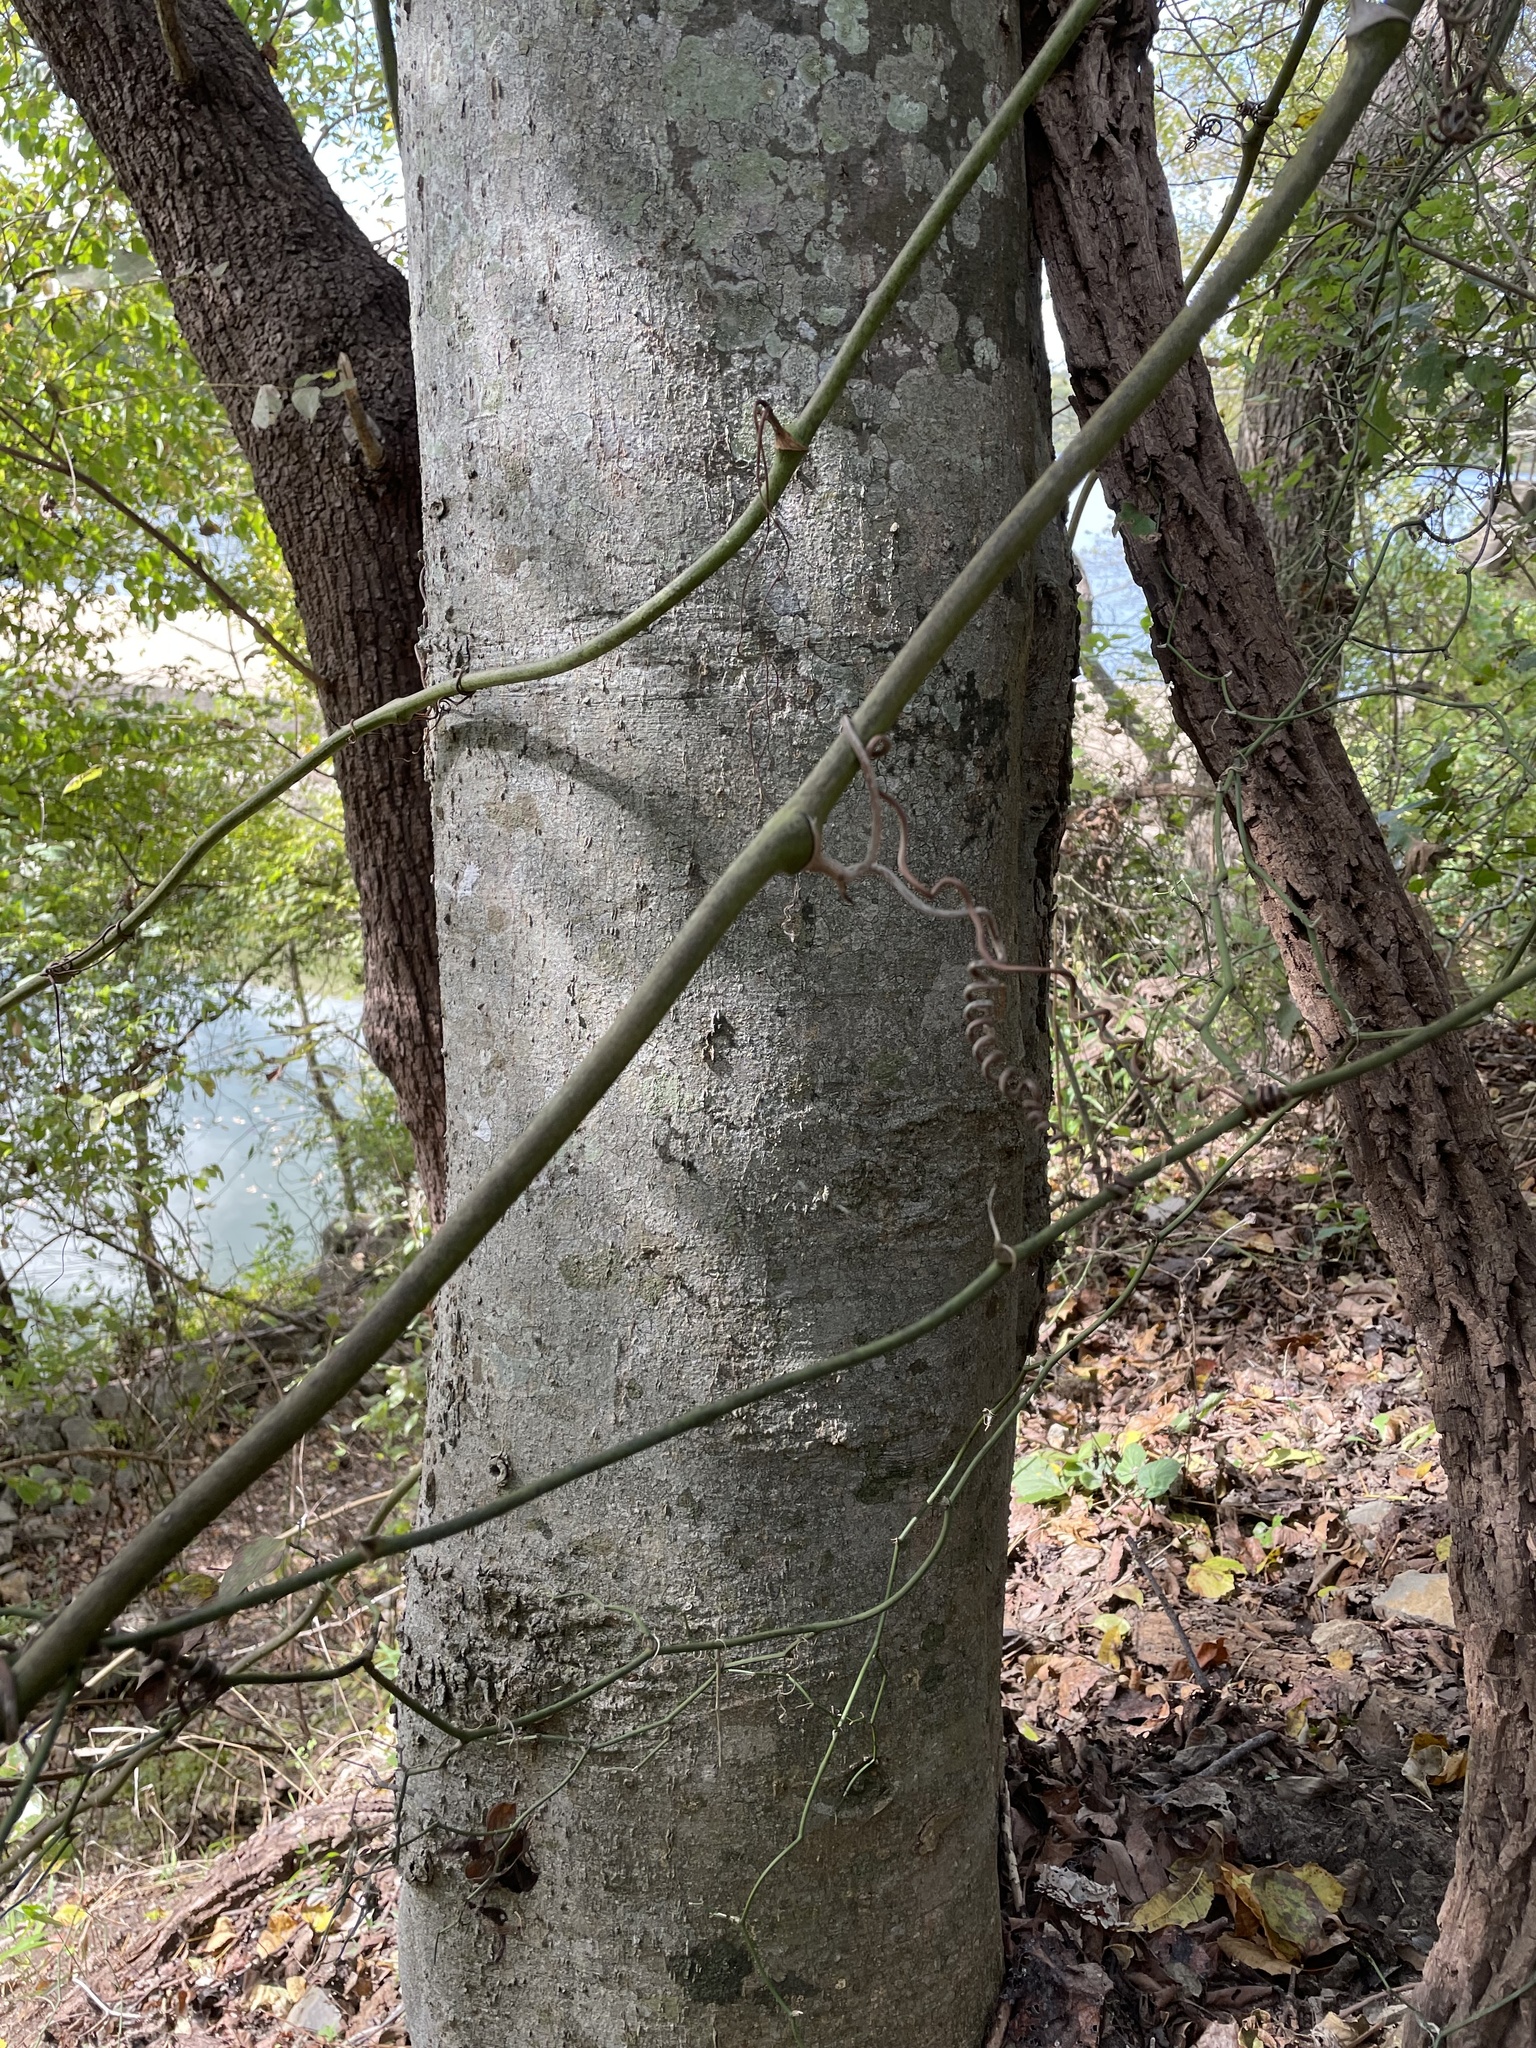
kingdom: Plantae
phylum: Tracheophyta
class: Magnoliopsida
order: Rosales
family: Cannabaceae
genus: Celtis
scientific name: Celtis laevigata
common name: Sugarberry
